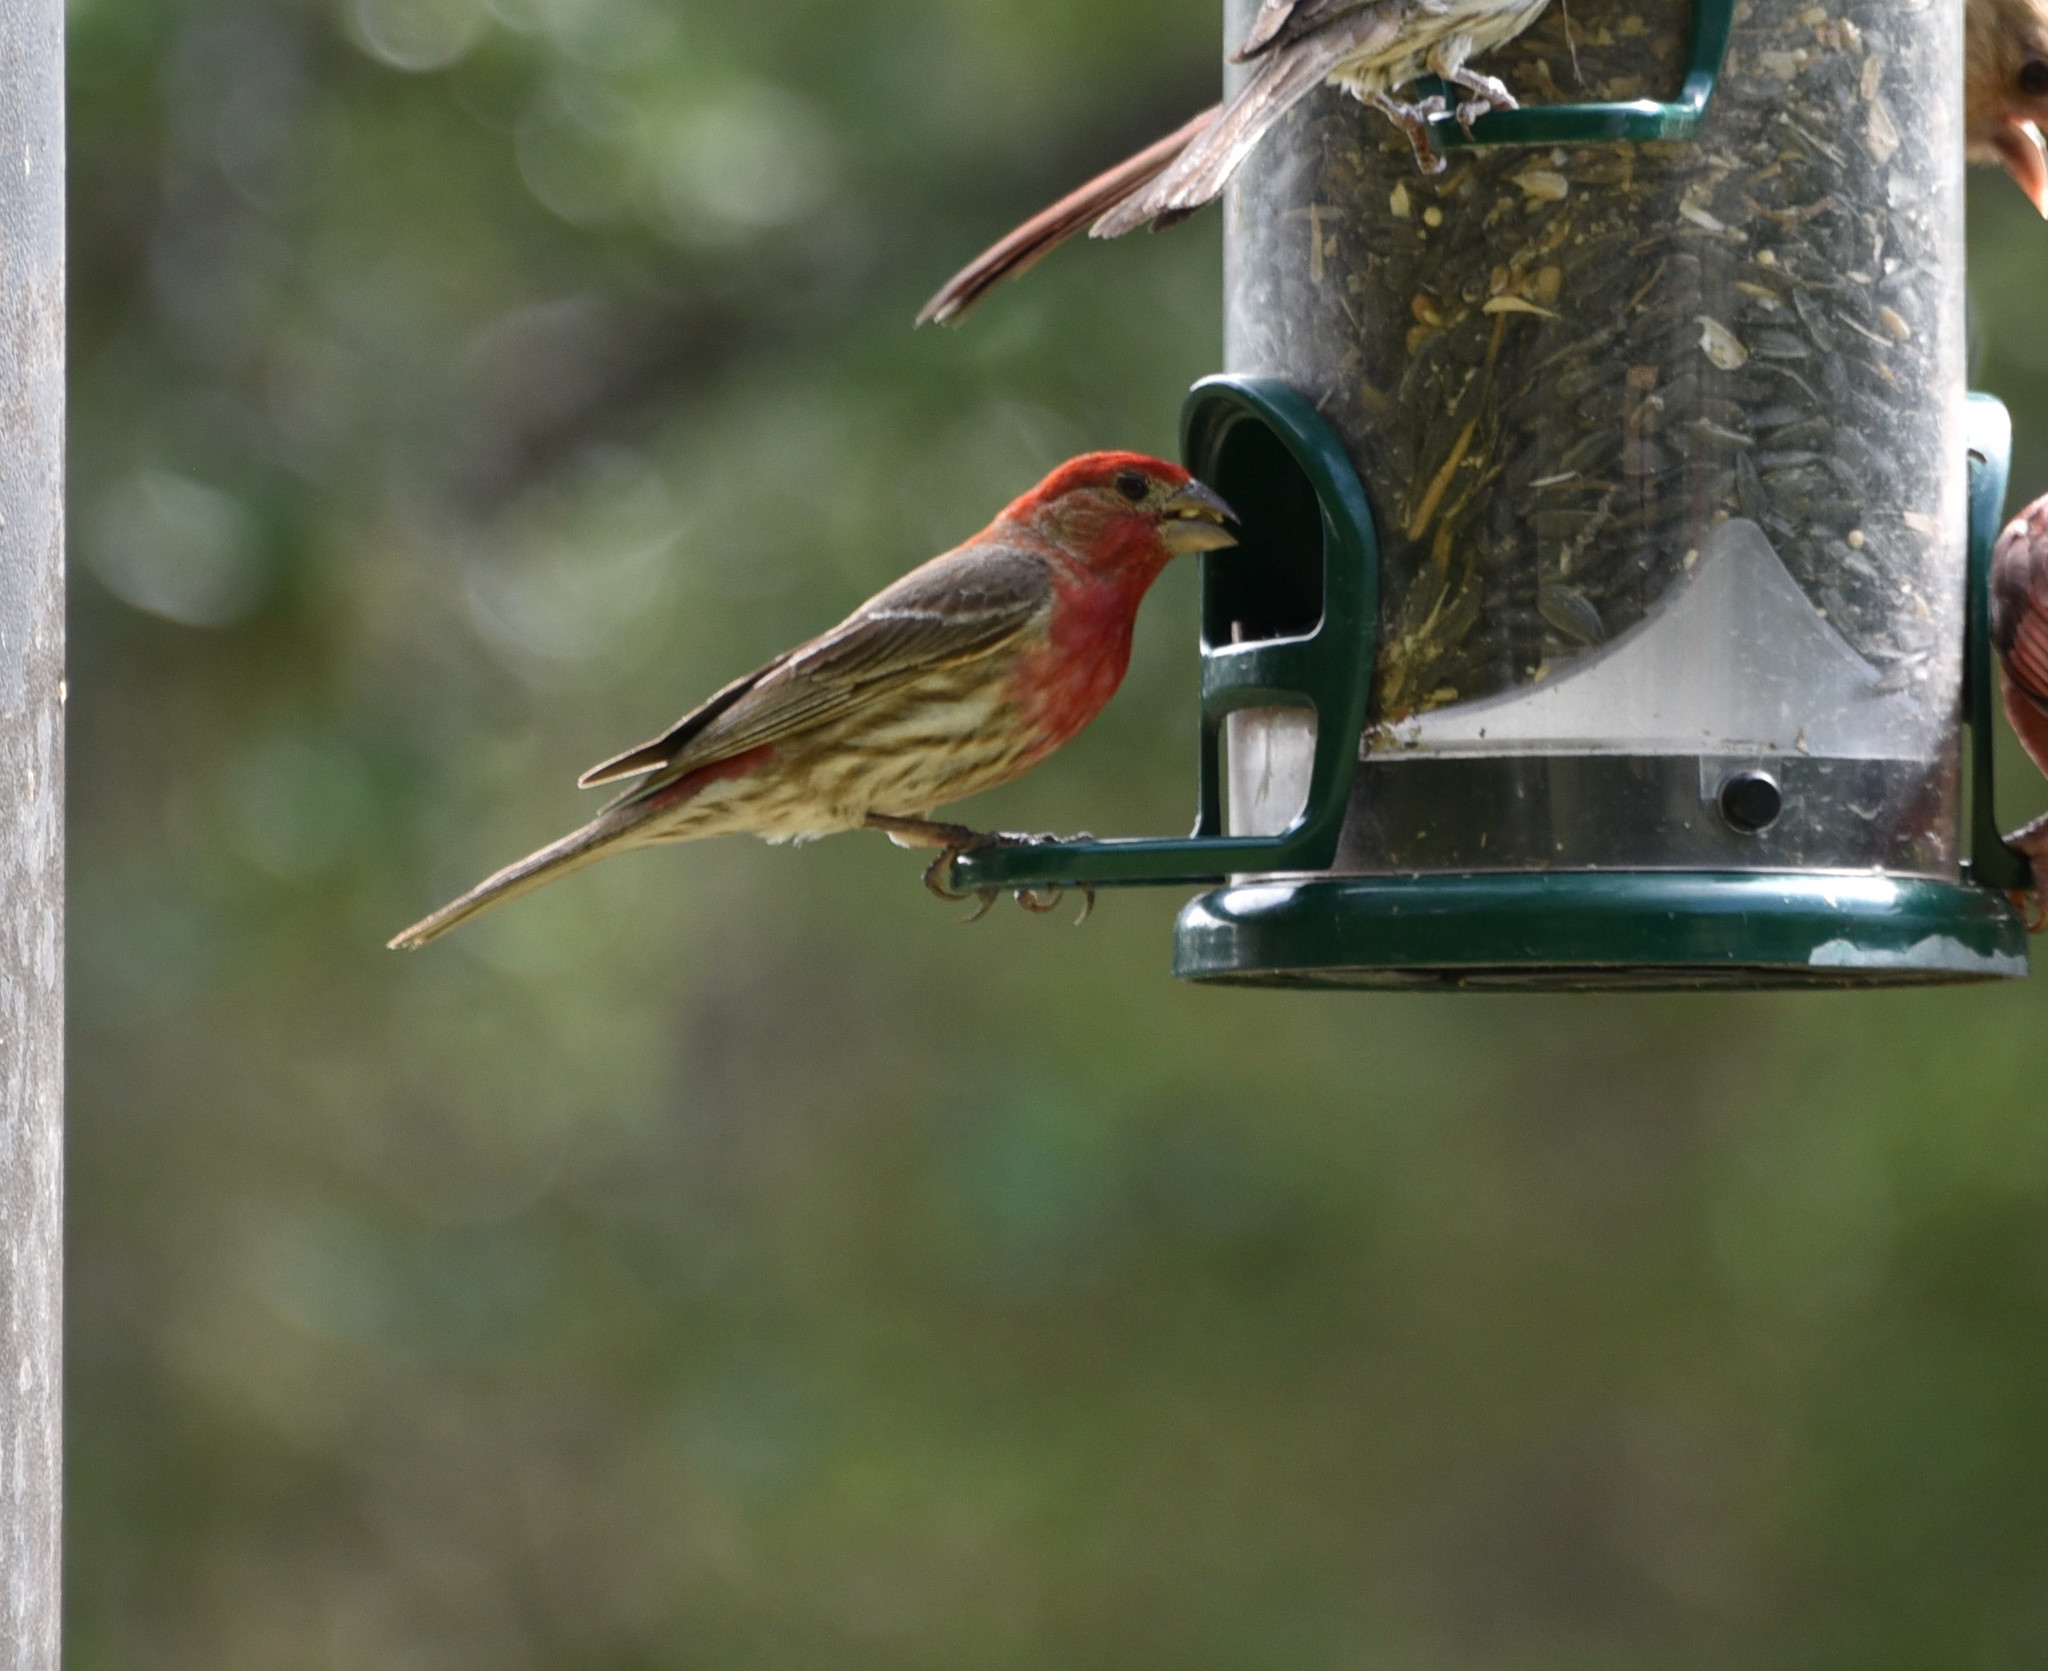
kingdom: Animalia
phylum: Chordata
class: Aves
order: Passeriformes
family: Fringillidae
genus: Haemorhous
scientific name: Haemorhous mexicanus
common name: House finch
